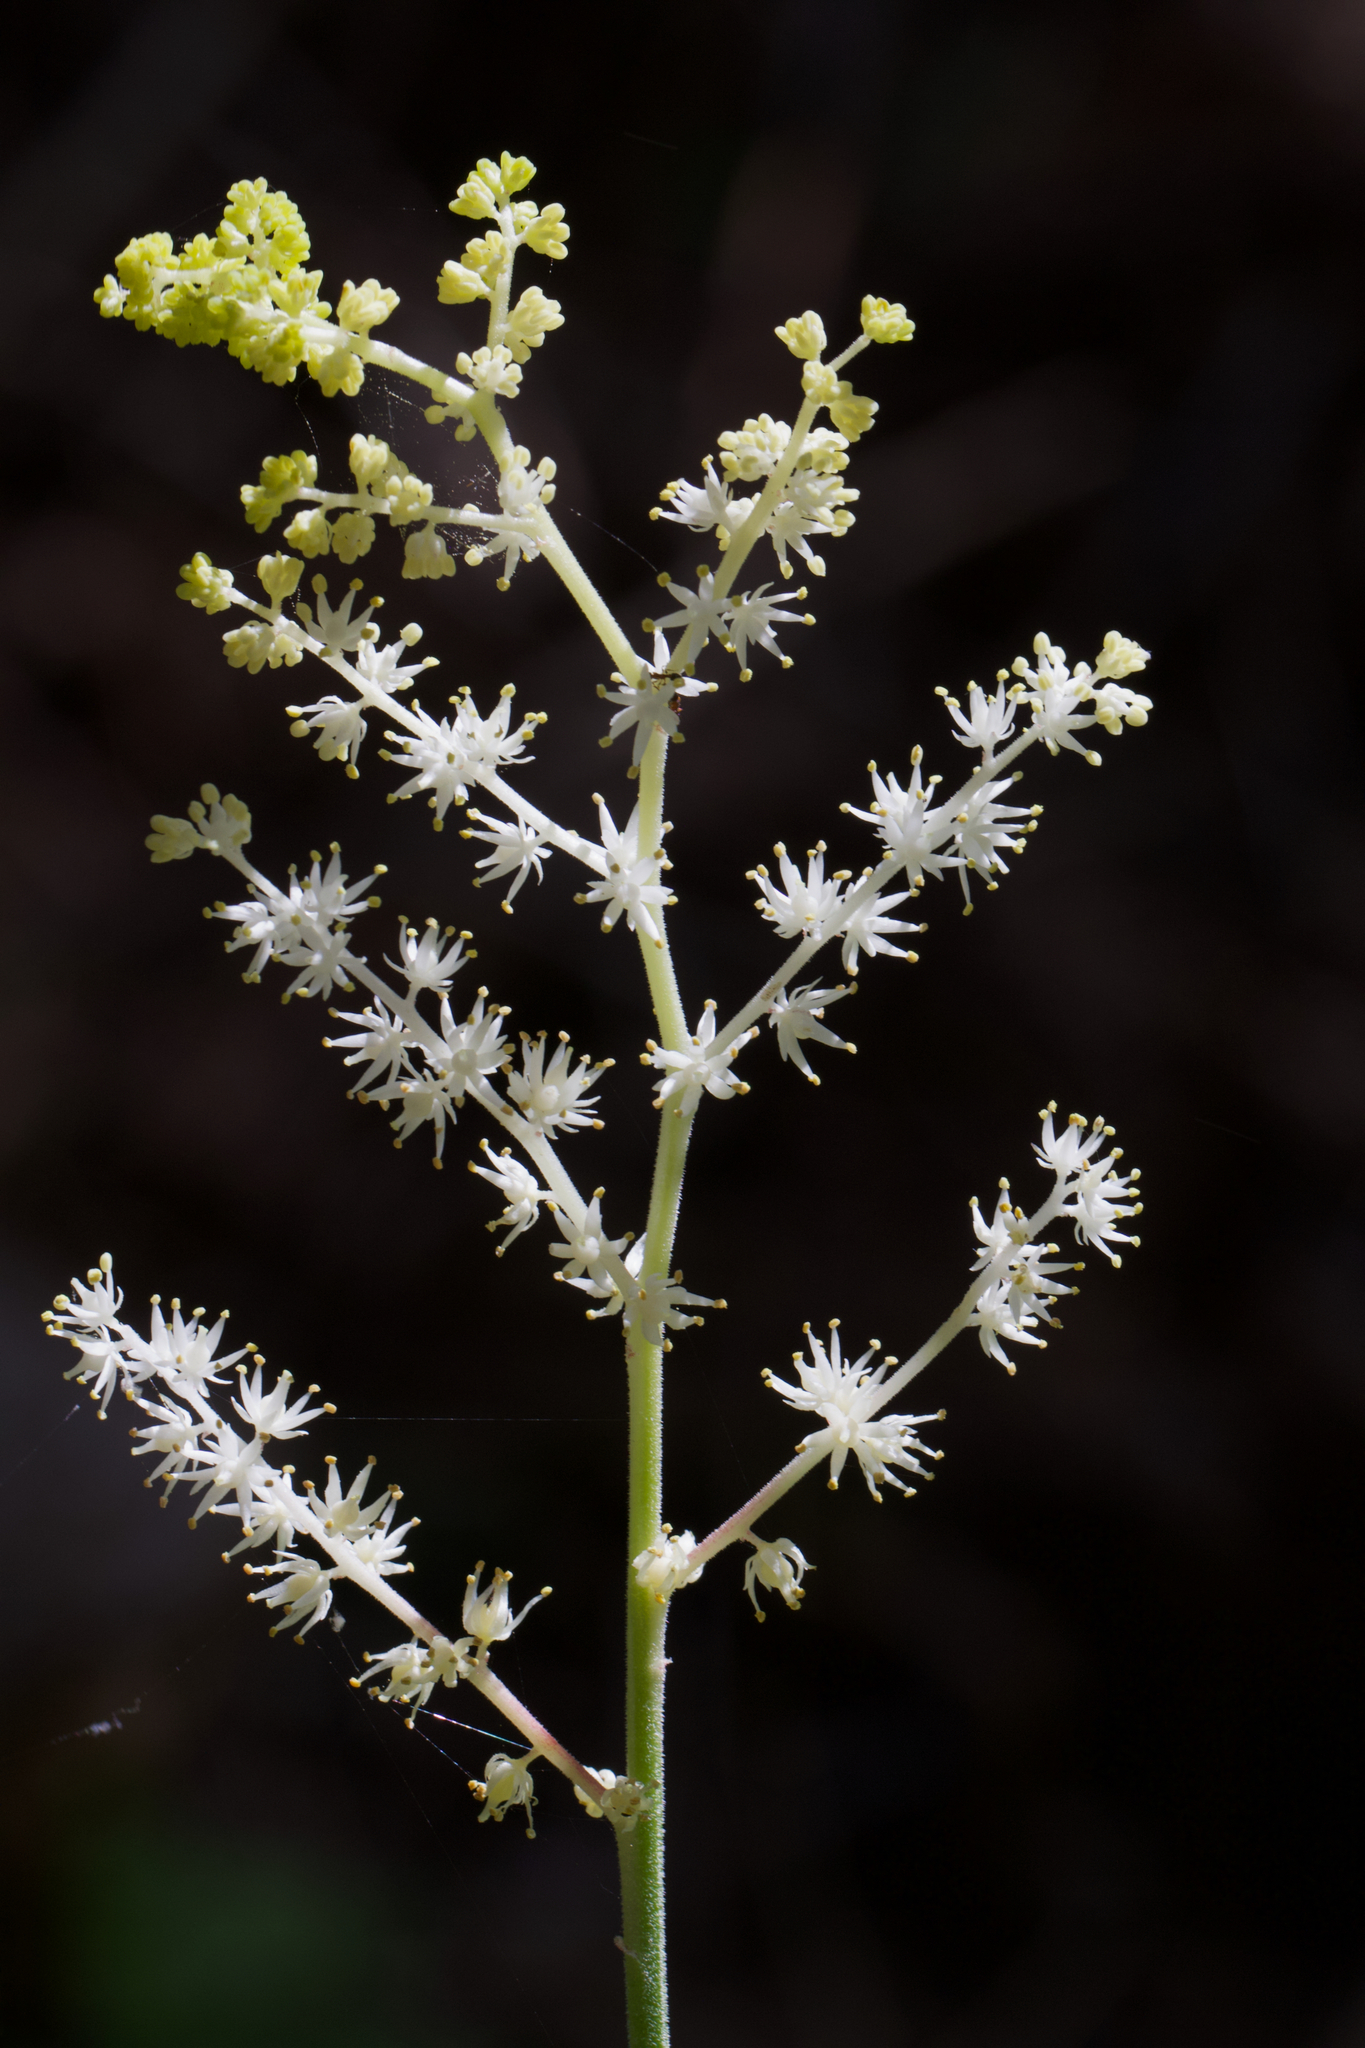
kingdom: Plantae
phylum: Tracheophyta
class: Liliopsida
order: Asparagales
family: Asparagaceae
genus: Maianthemum
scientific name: Maianthemum racemosum
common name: False spikenard
